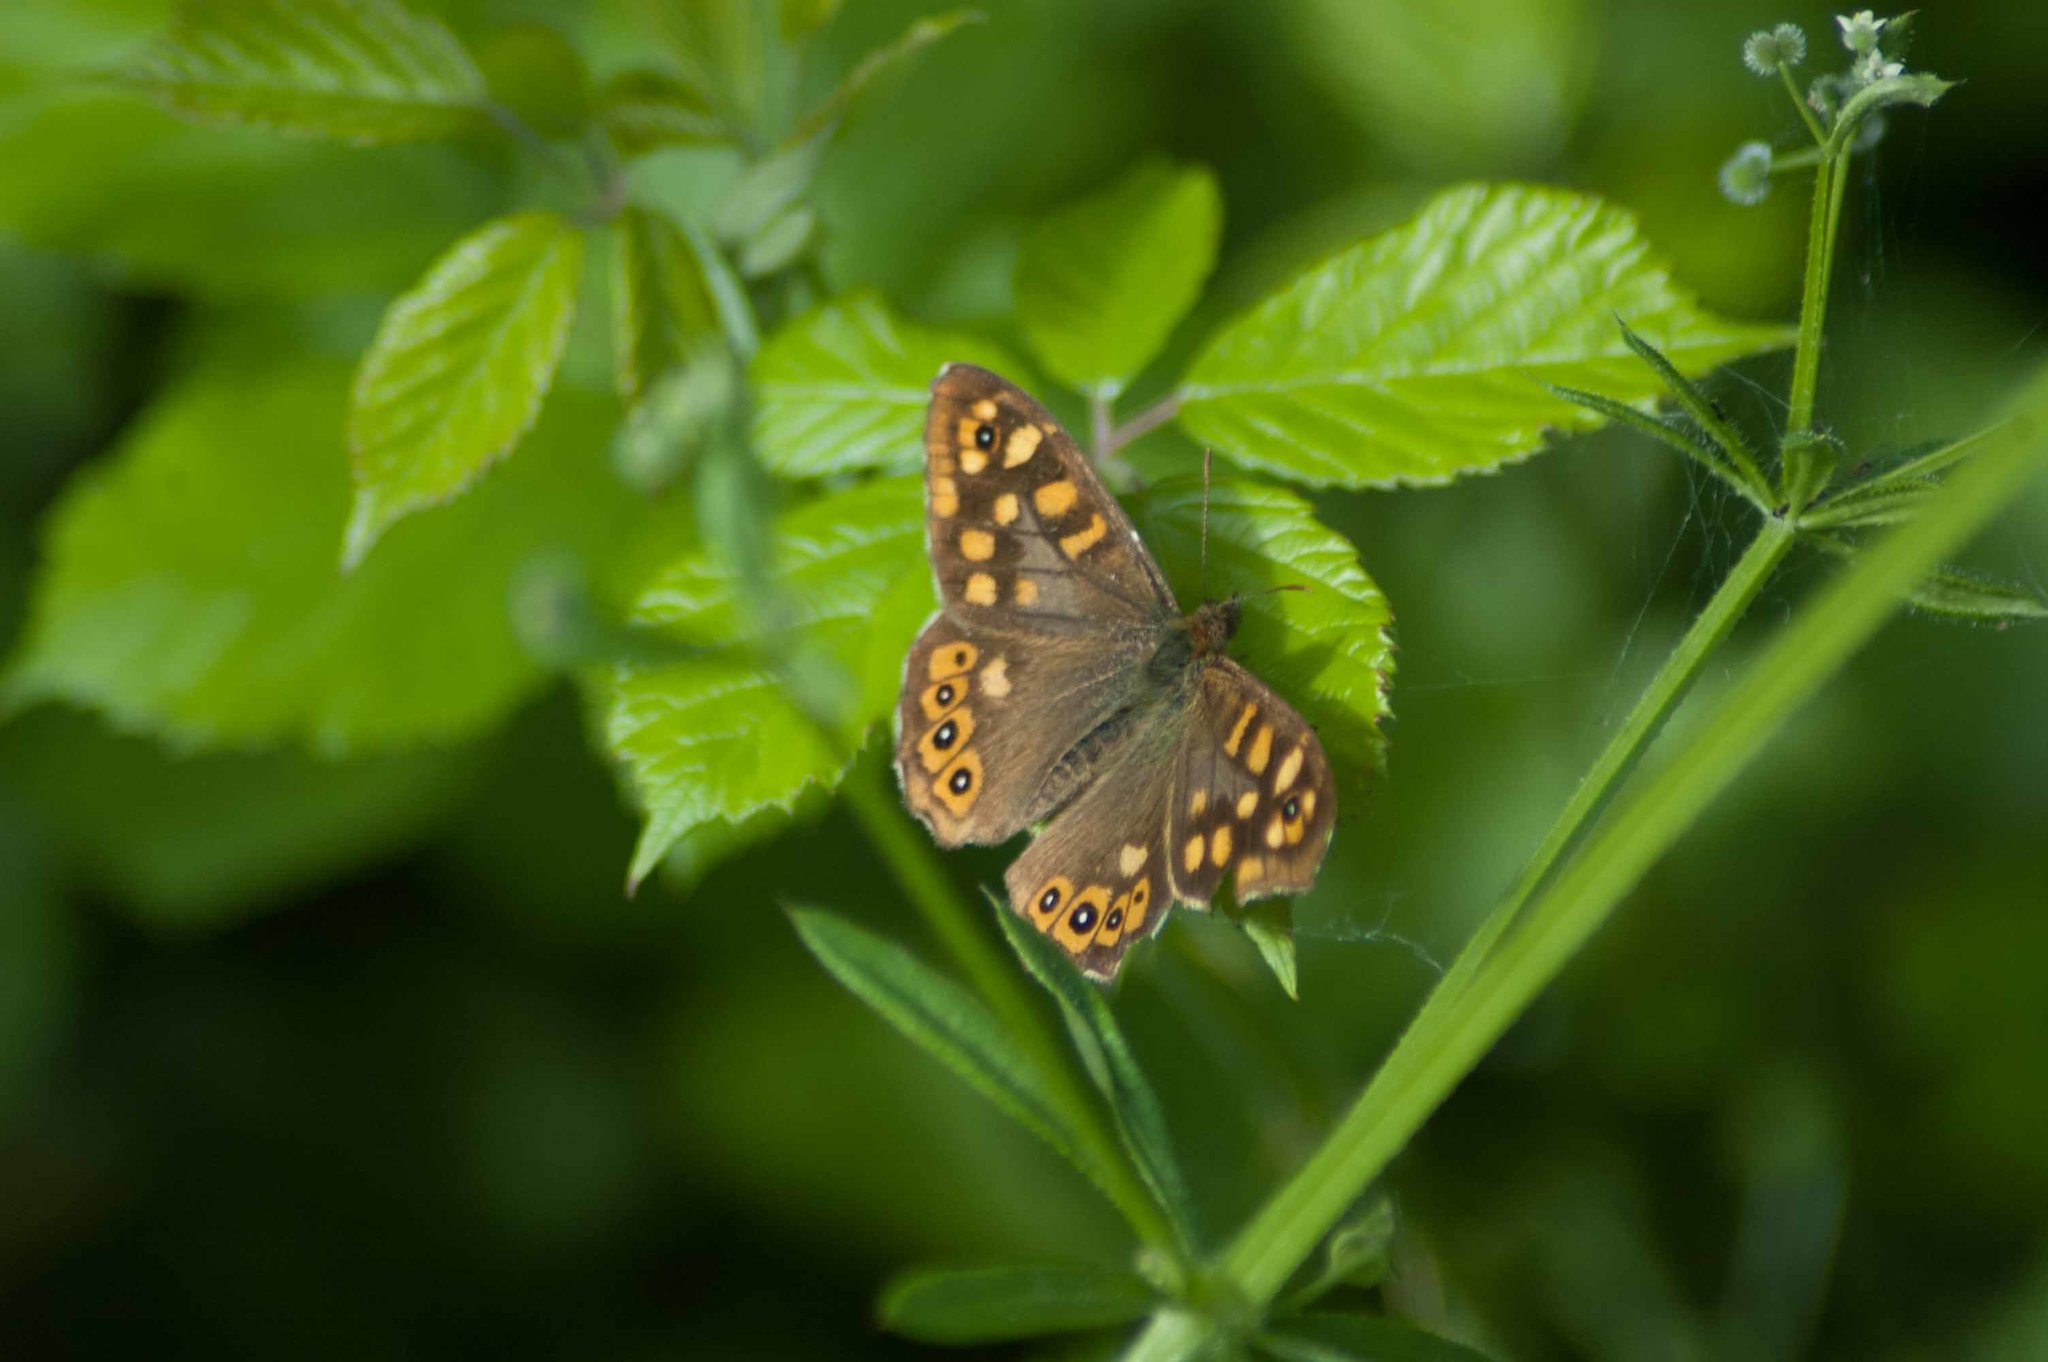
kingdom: Animalia
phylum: Arthropoda
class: Insecta
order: Lepidoptera
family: Nymphalidae
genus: Pararge
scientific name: Pararge aegeria
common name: Speckled wood
